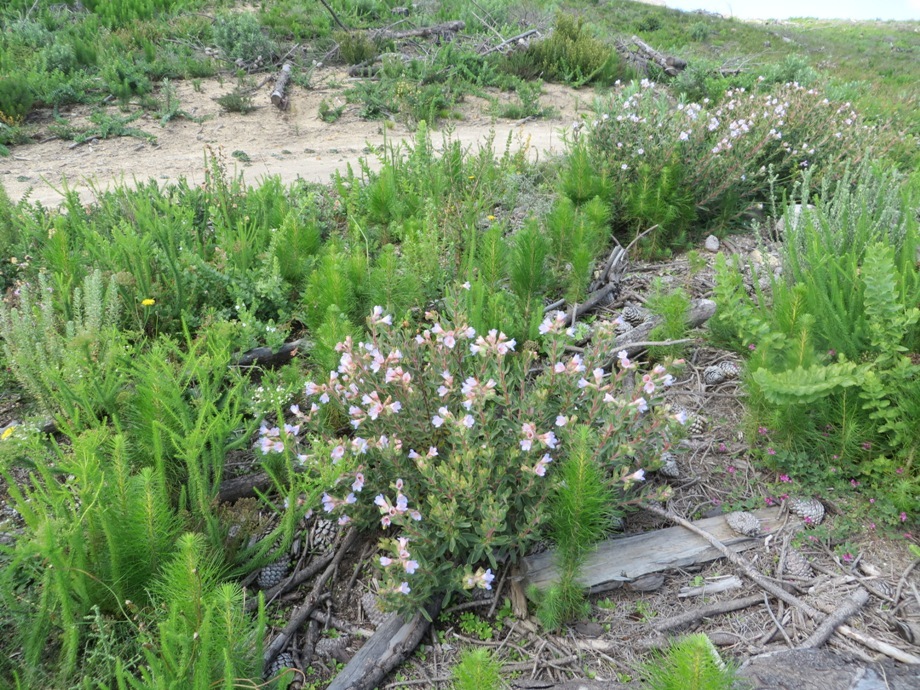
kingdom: Plantae
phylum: Tracheophyta
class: Magnoliopsida
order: Boraginales
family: Boraginaceae
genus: Lobostemon
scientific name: Lobostemon fruticosus
